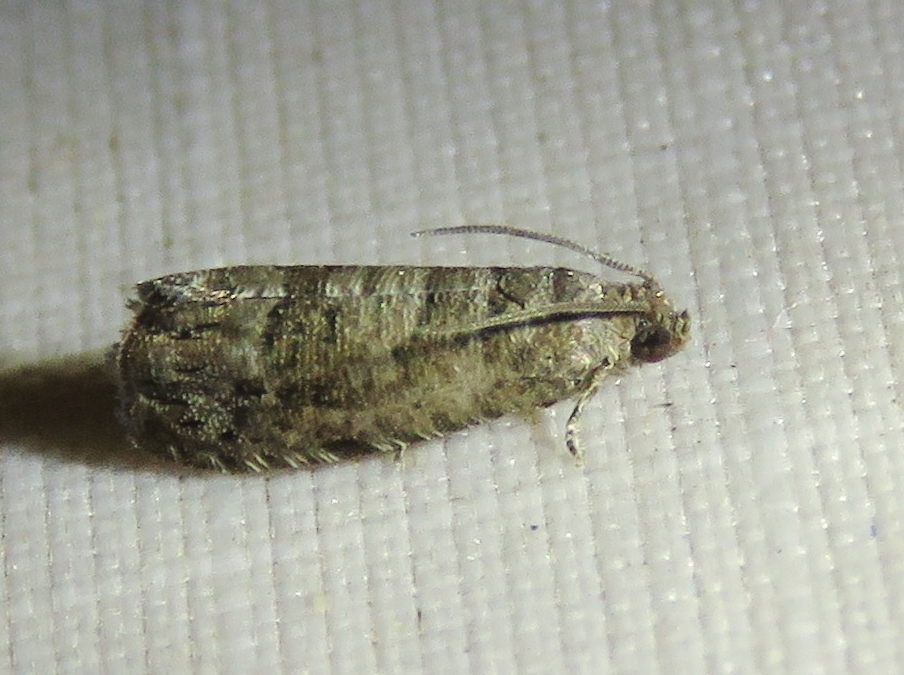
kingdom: Animalia
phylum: Arthropoda
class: Insecta
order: Lepidoptera
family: Noctuidae
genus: Aspila
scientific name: Aspila
